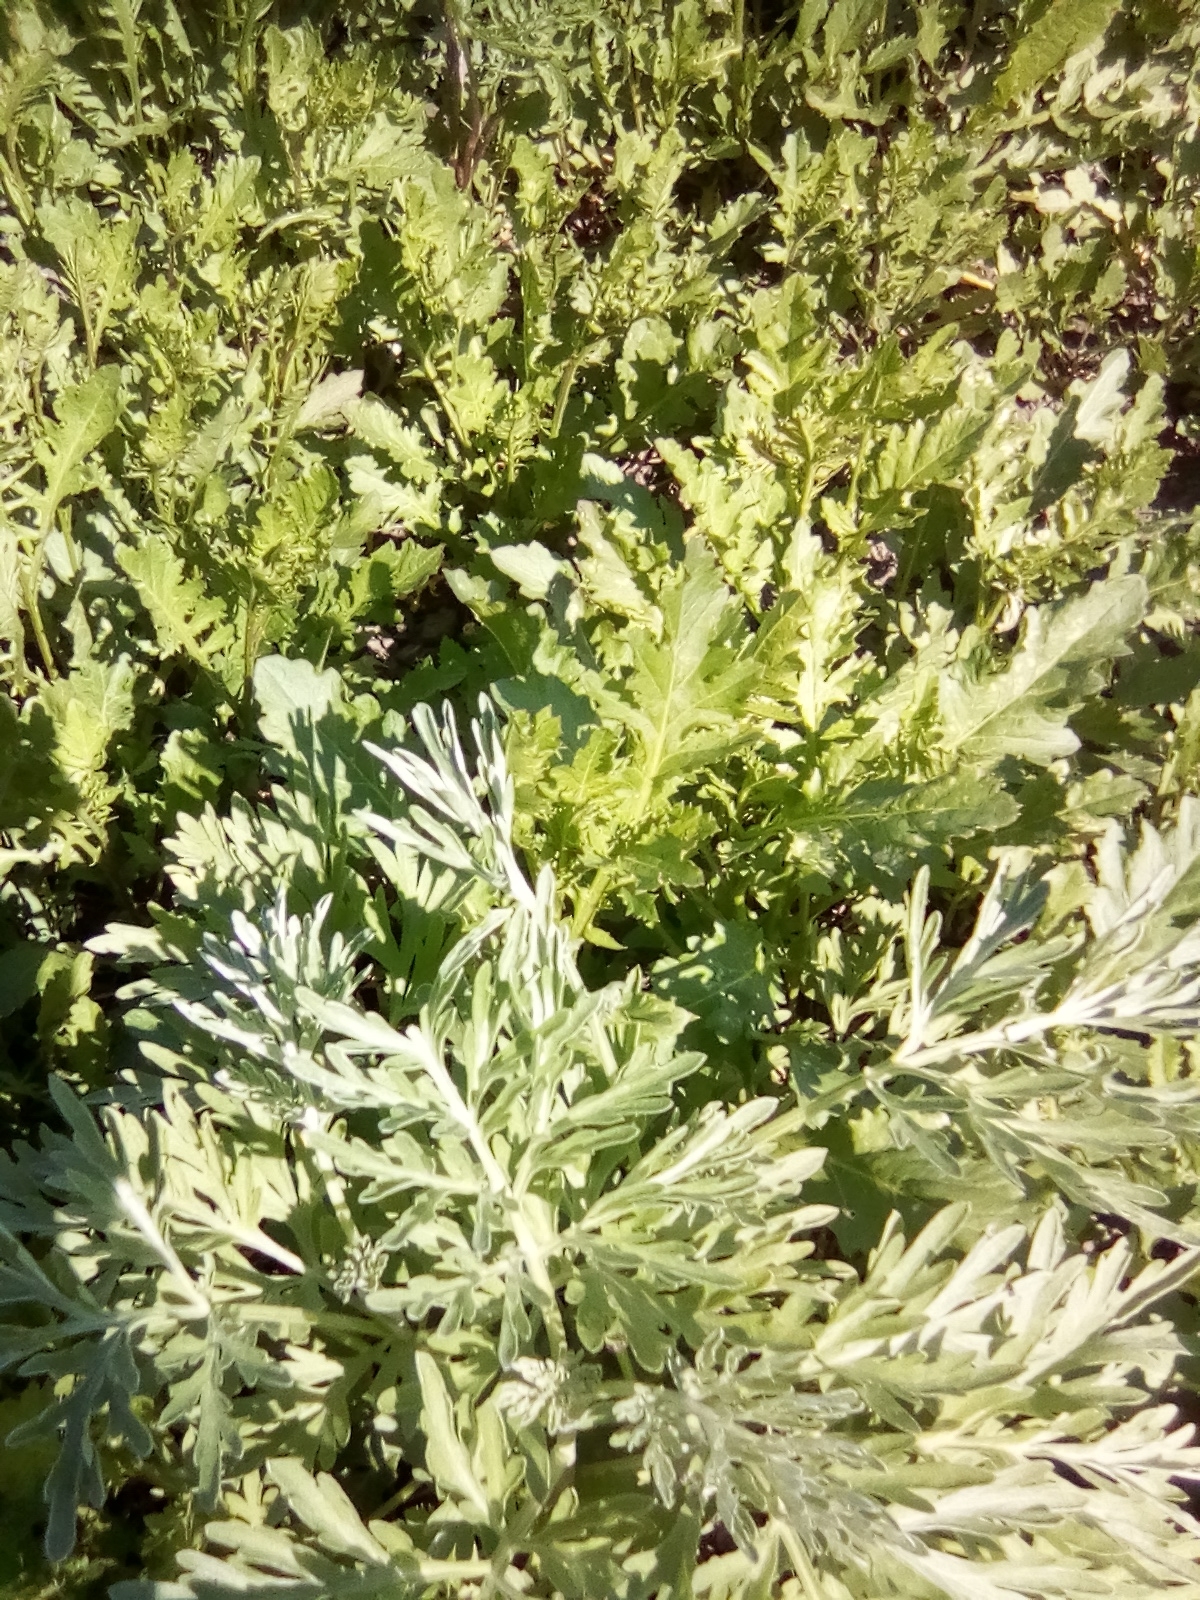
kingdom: Plantae
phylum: Tracheophyta
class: Magnoliopsida
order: Asterales
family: Asteraceae
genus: Artemisia
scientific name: Artemisia absinthium
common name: Wormwood
